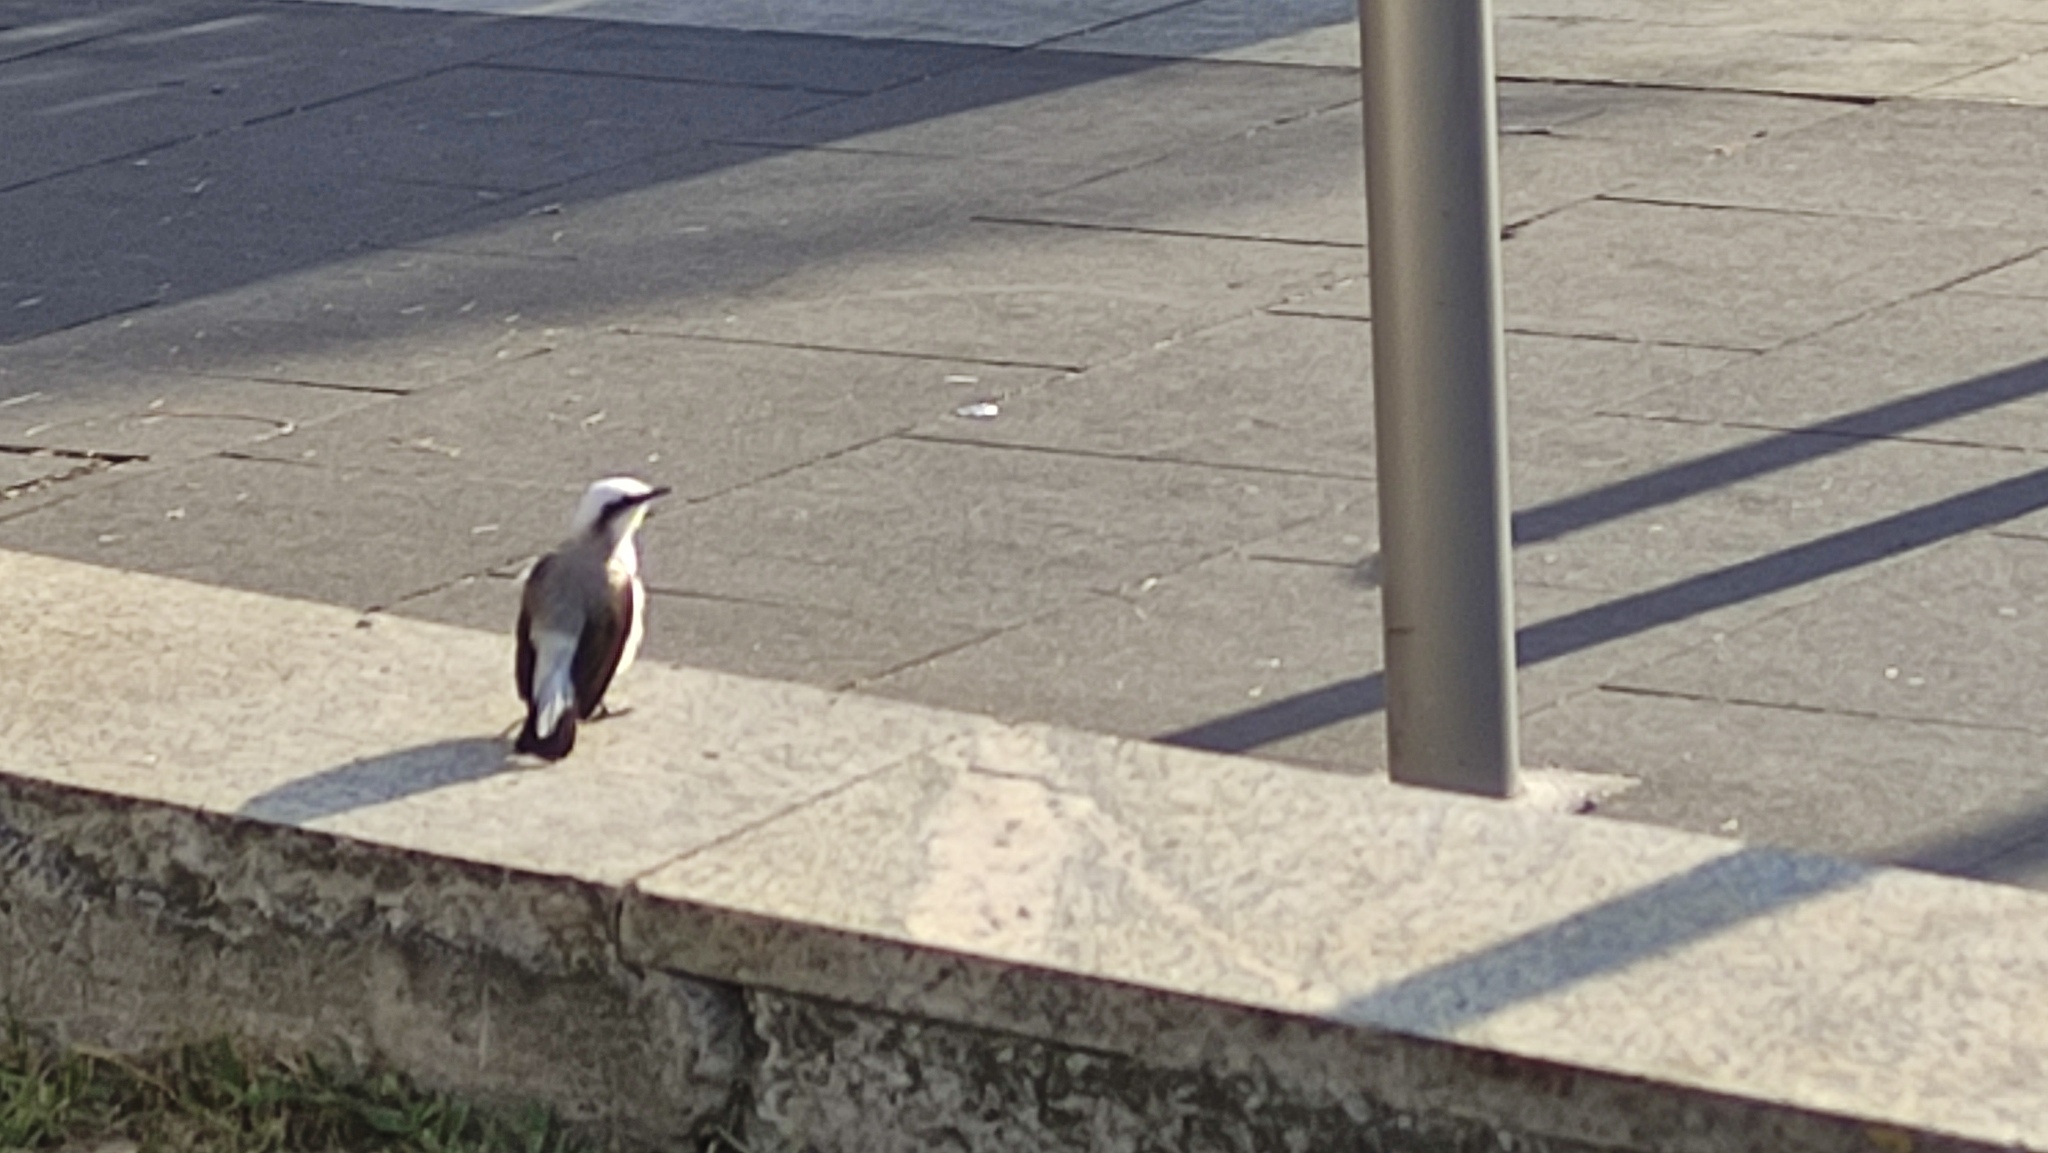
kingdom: Animalia
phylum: Chordata
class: Aves
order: Passeriformes
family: Tyrannidae
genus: Fluvicola
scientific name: Fluvicola nengeta
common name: Masked water tyrant
